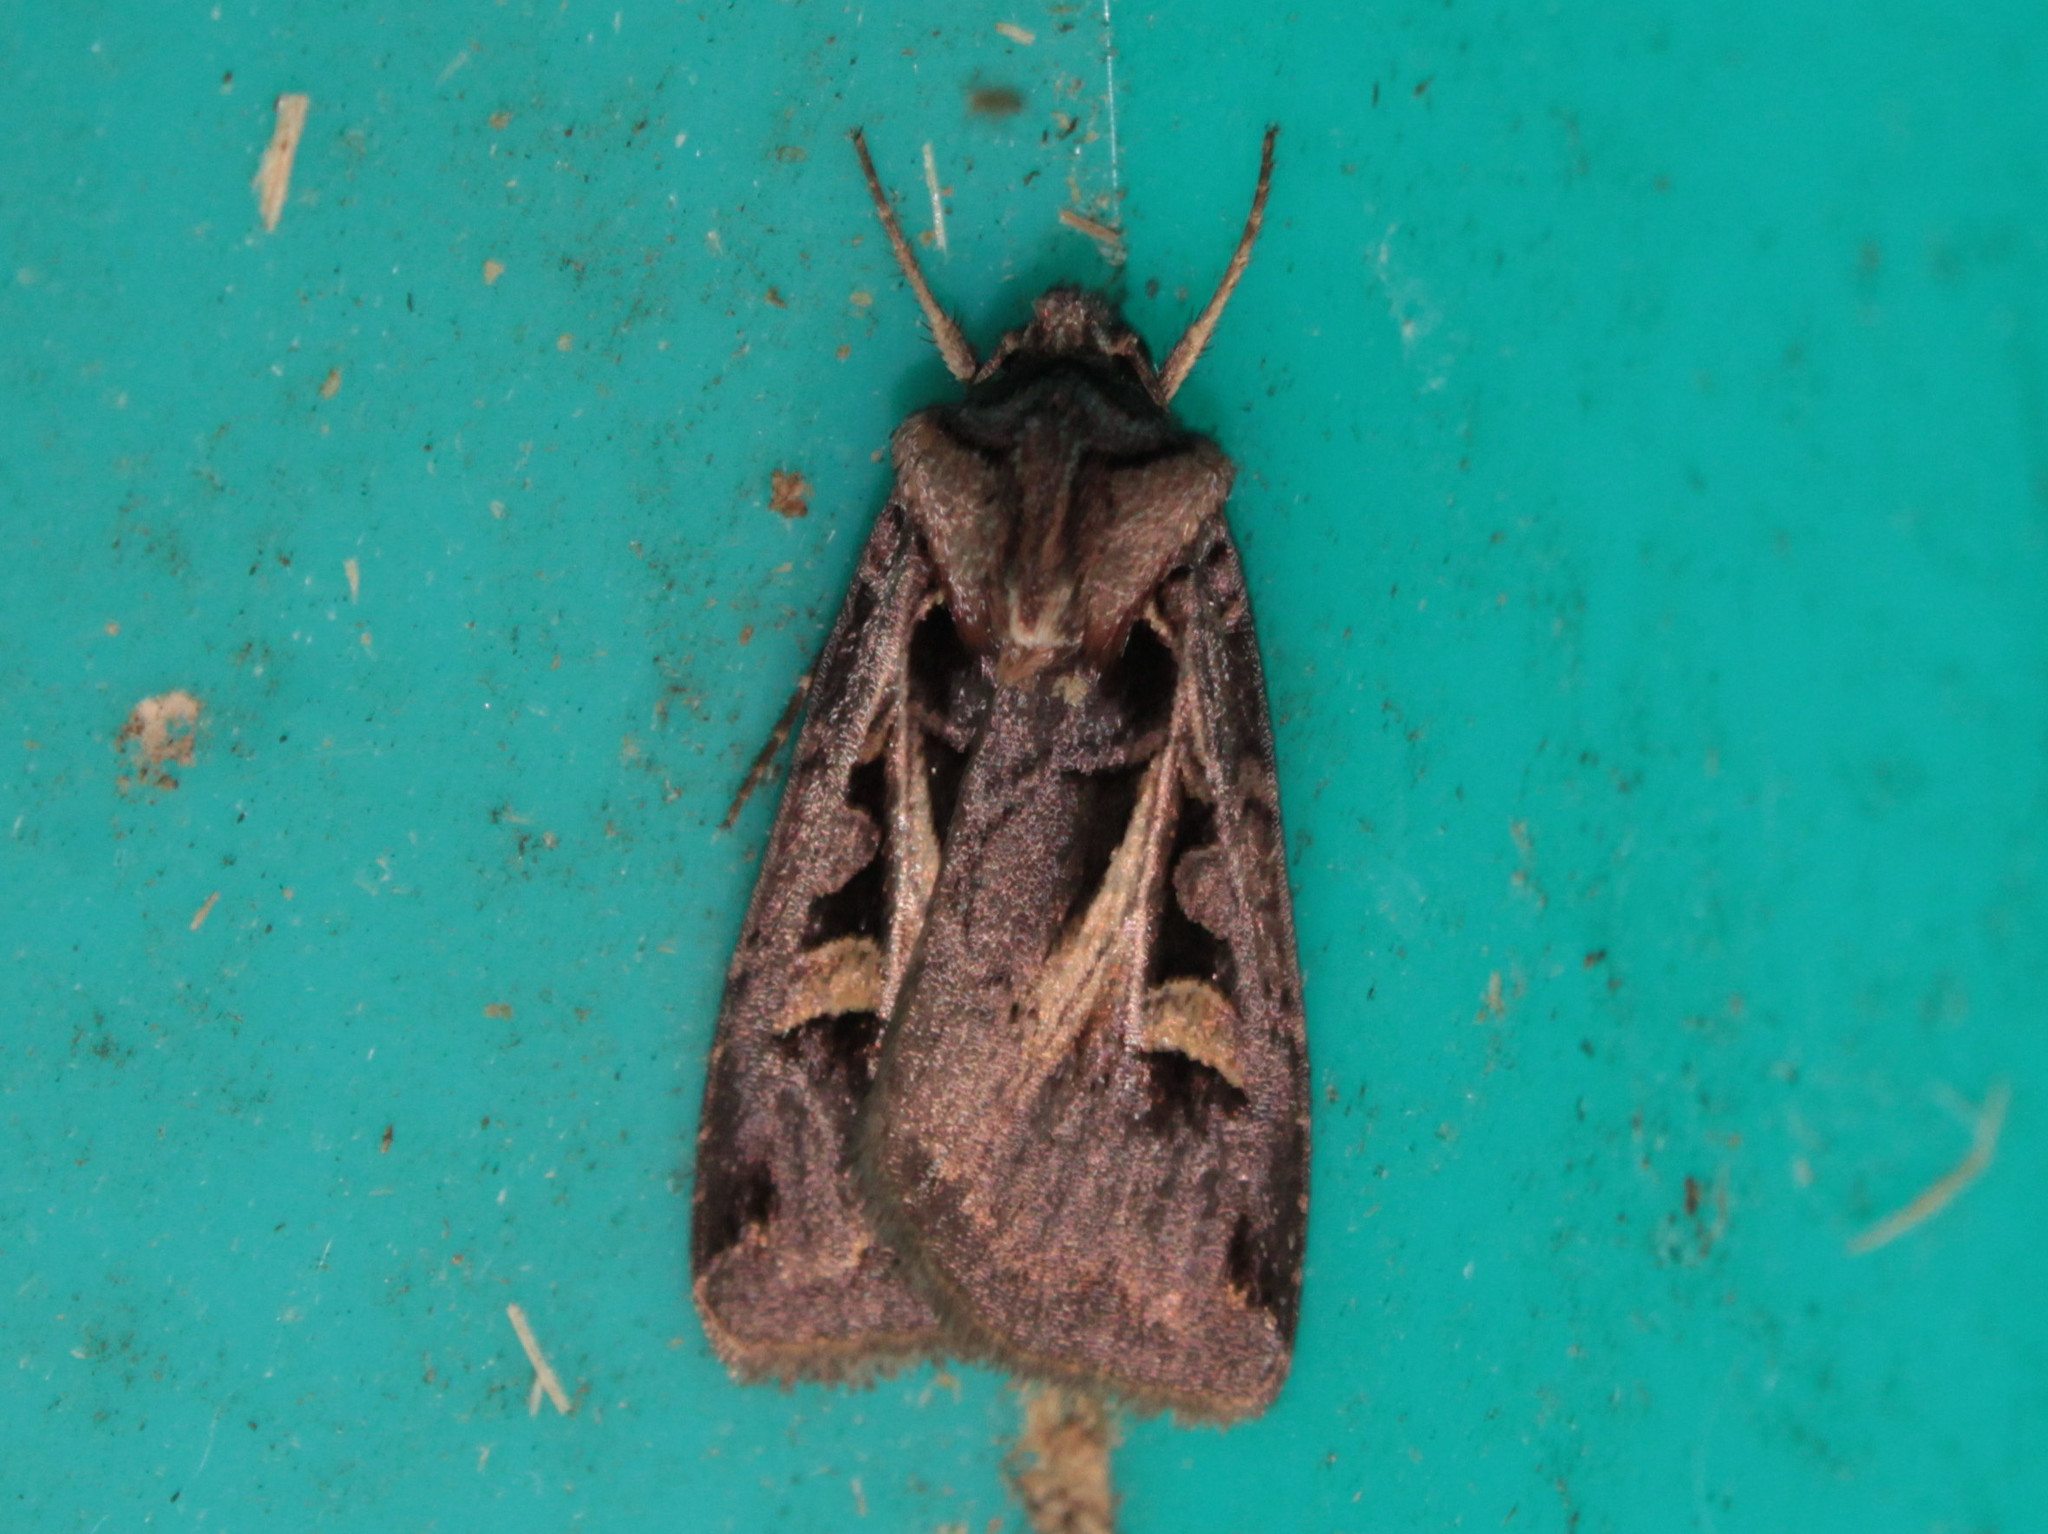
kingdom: Animalia
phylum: Arthropoda
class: Insecta
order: Lepidoptera
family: Noctuidae
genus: Feltia
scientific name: Feltia herilis
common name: Master's dart
